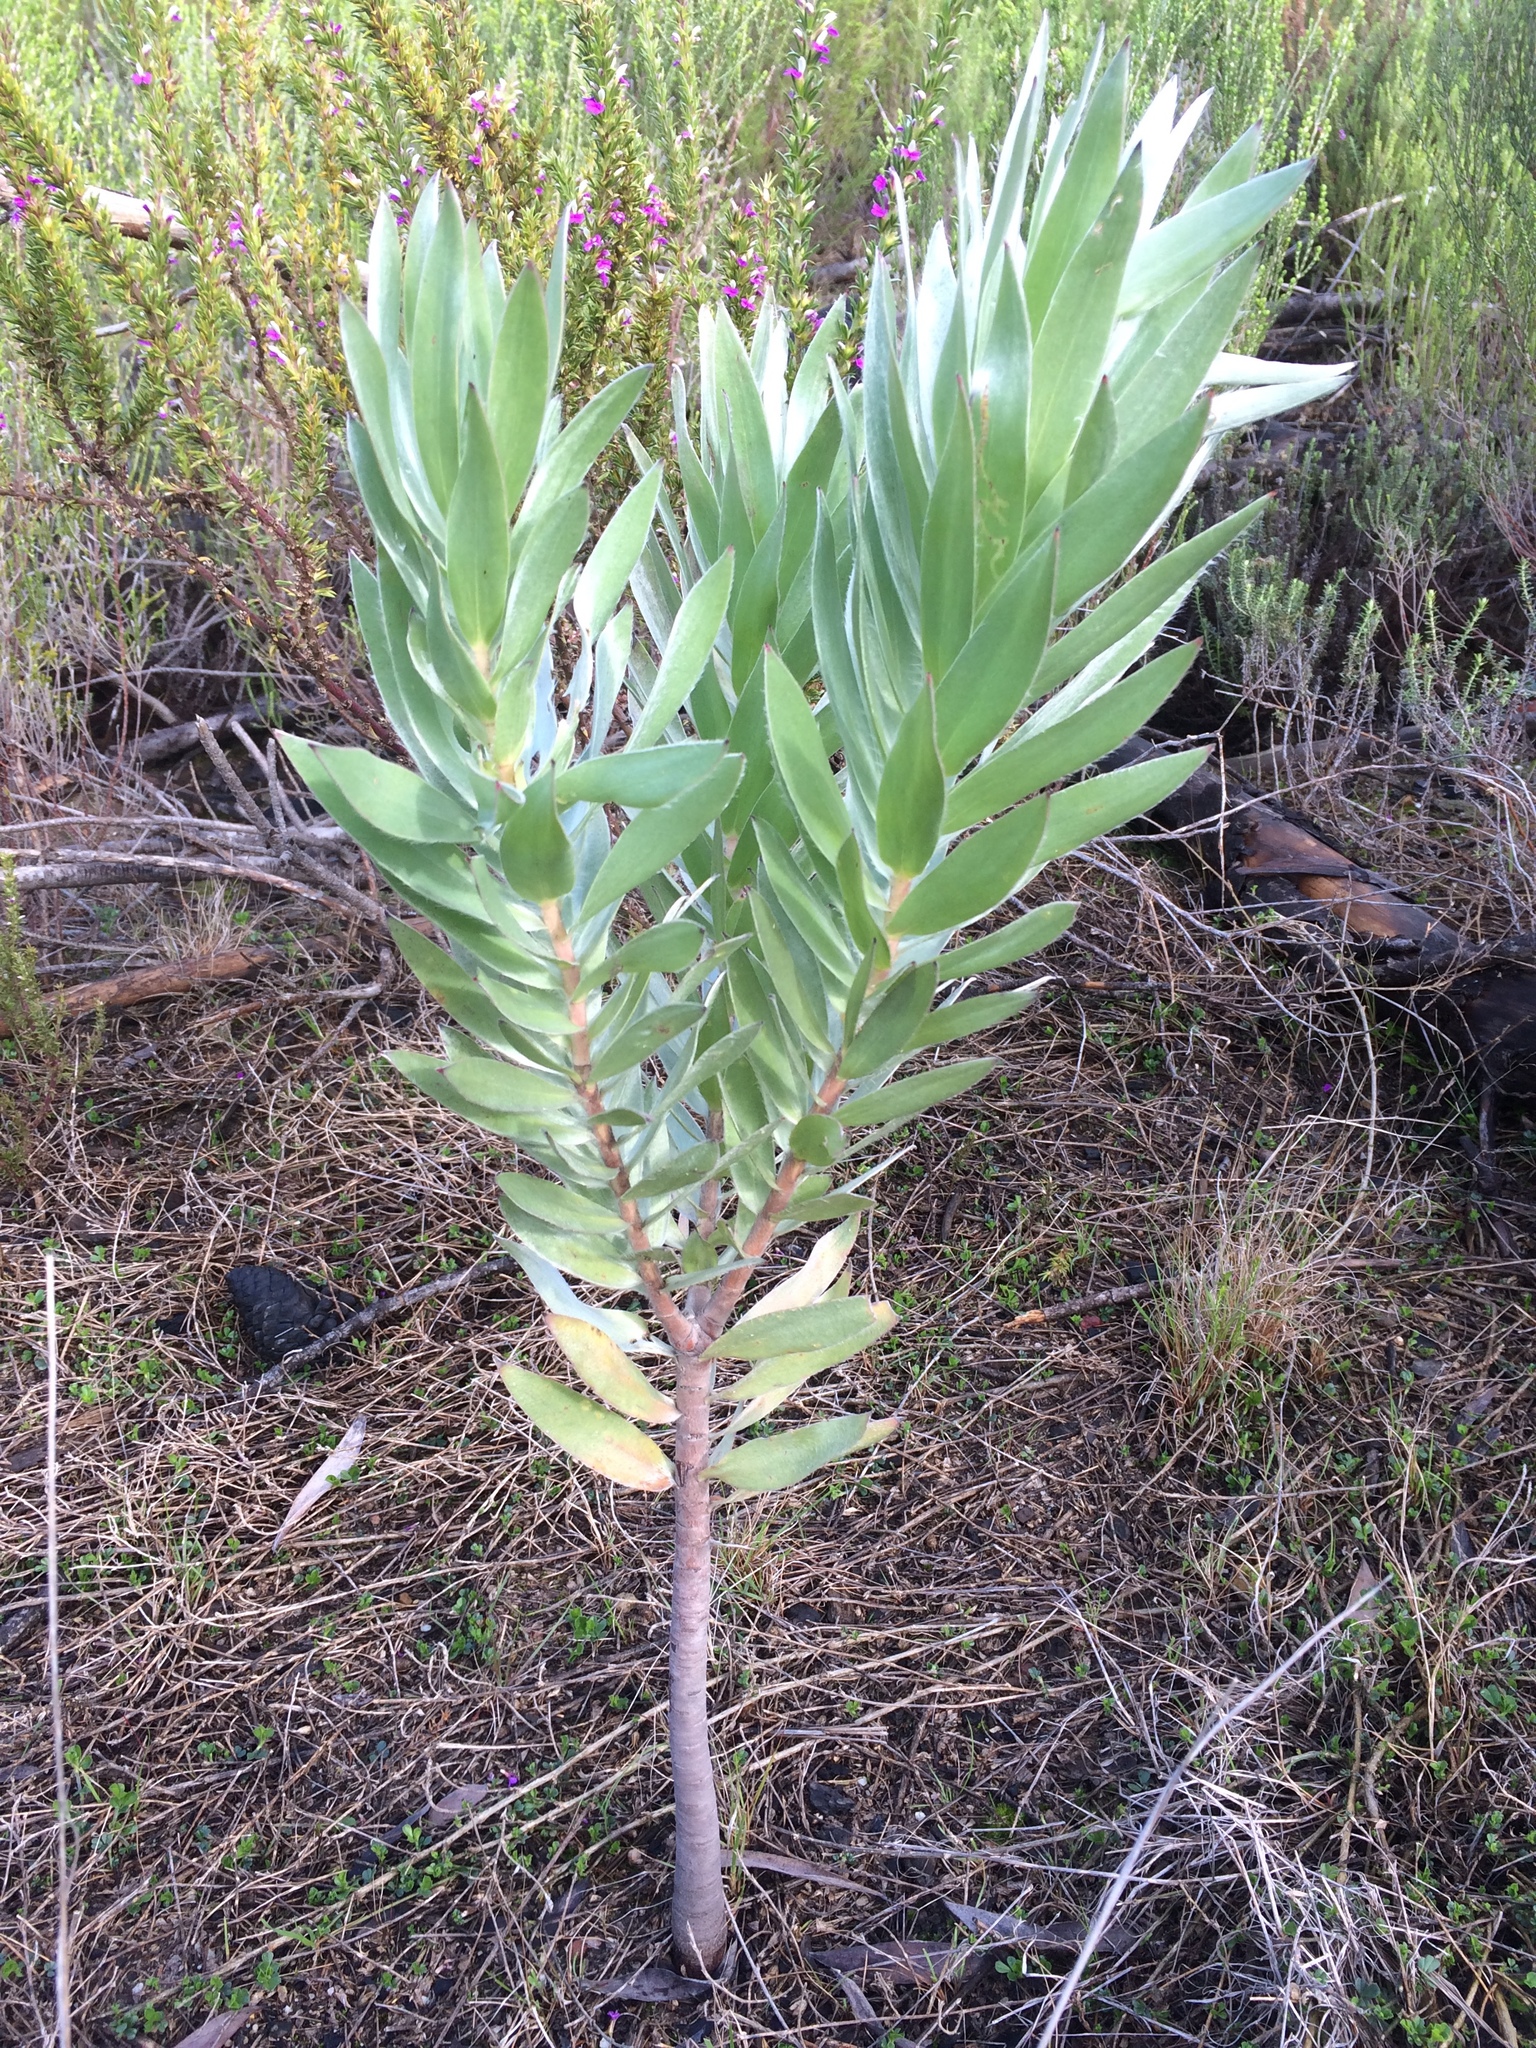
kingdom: Plantae
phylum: Tracheophyta
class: Magnoliopsida
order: Proteales
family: Proteaceae
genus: Leucadendron
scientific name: Leucadendron argenteum
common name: Cape silver tree
